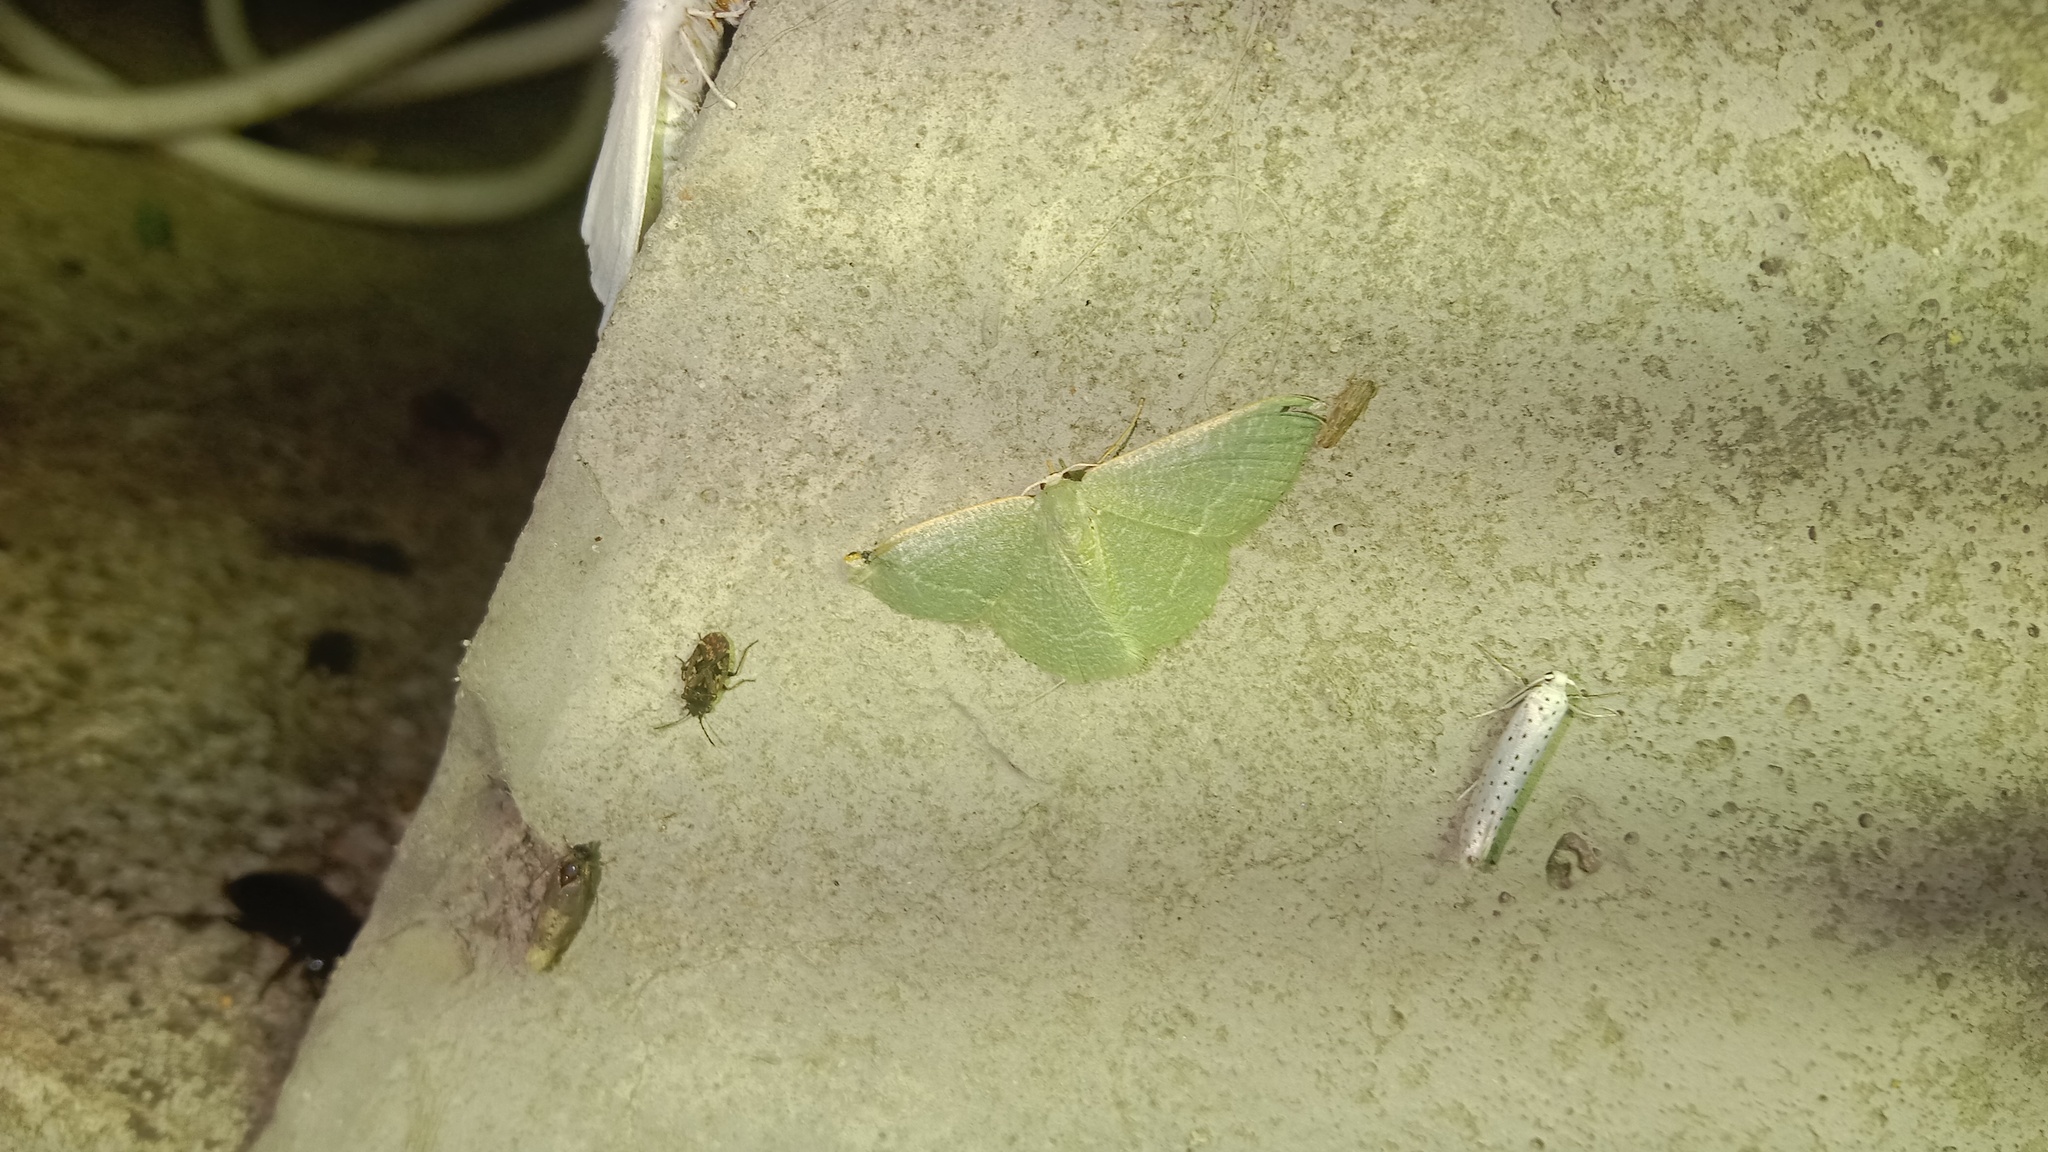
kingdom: Animalia
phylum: Arthropoda
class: Insecta
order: Lepidoptera
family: Geometridae
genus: Chlorissa
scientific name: Chlorissa etruscaria
